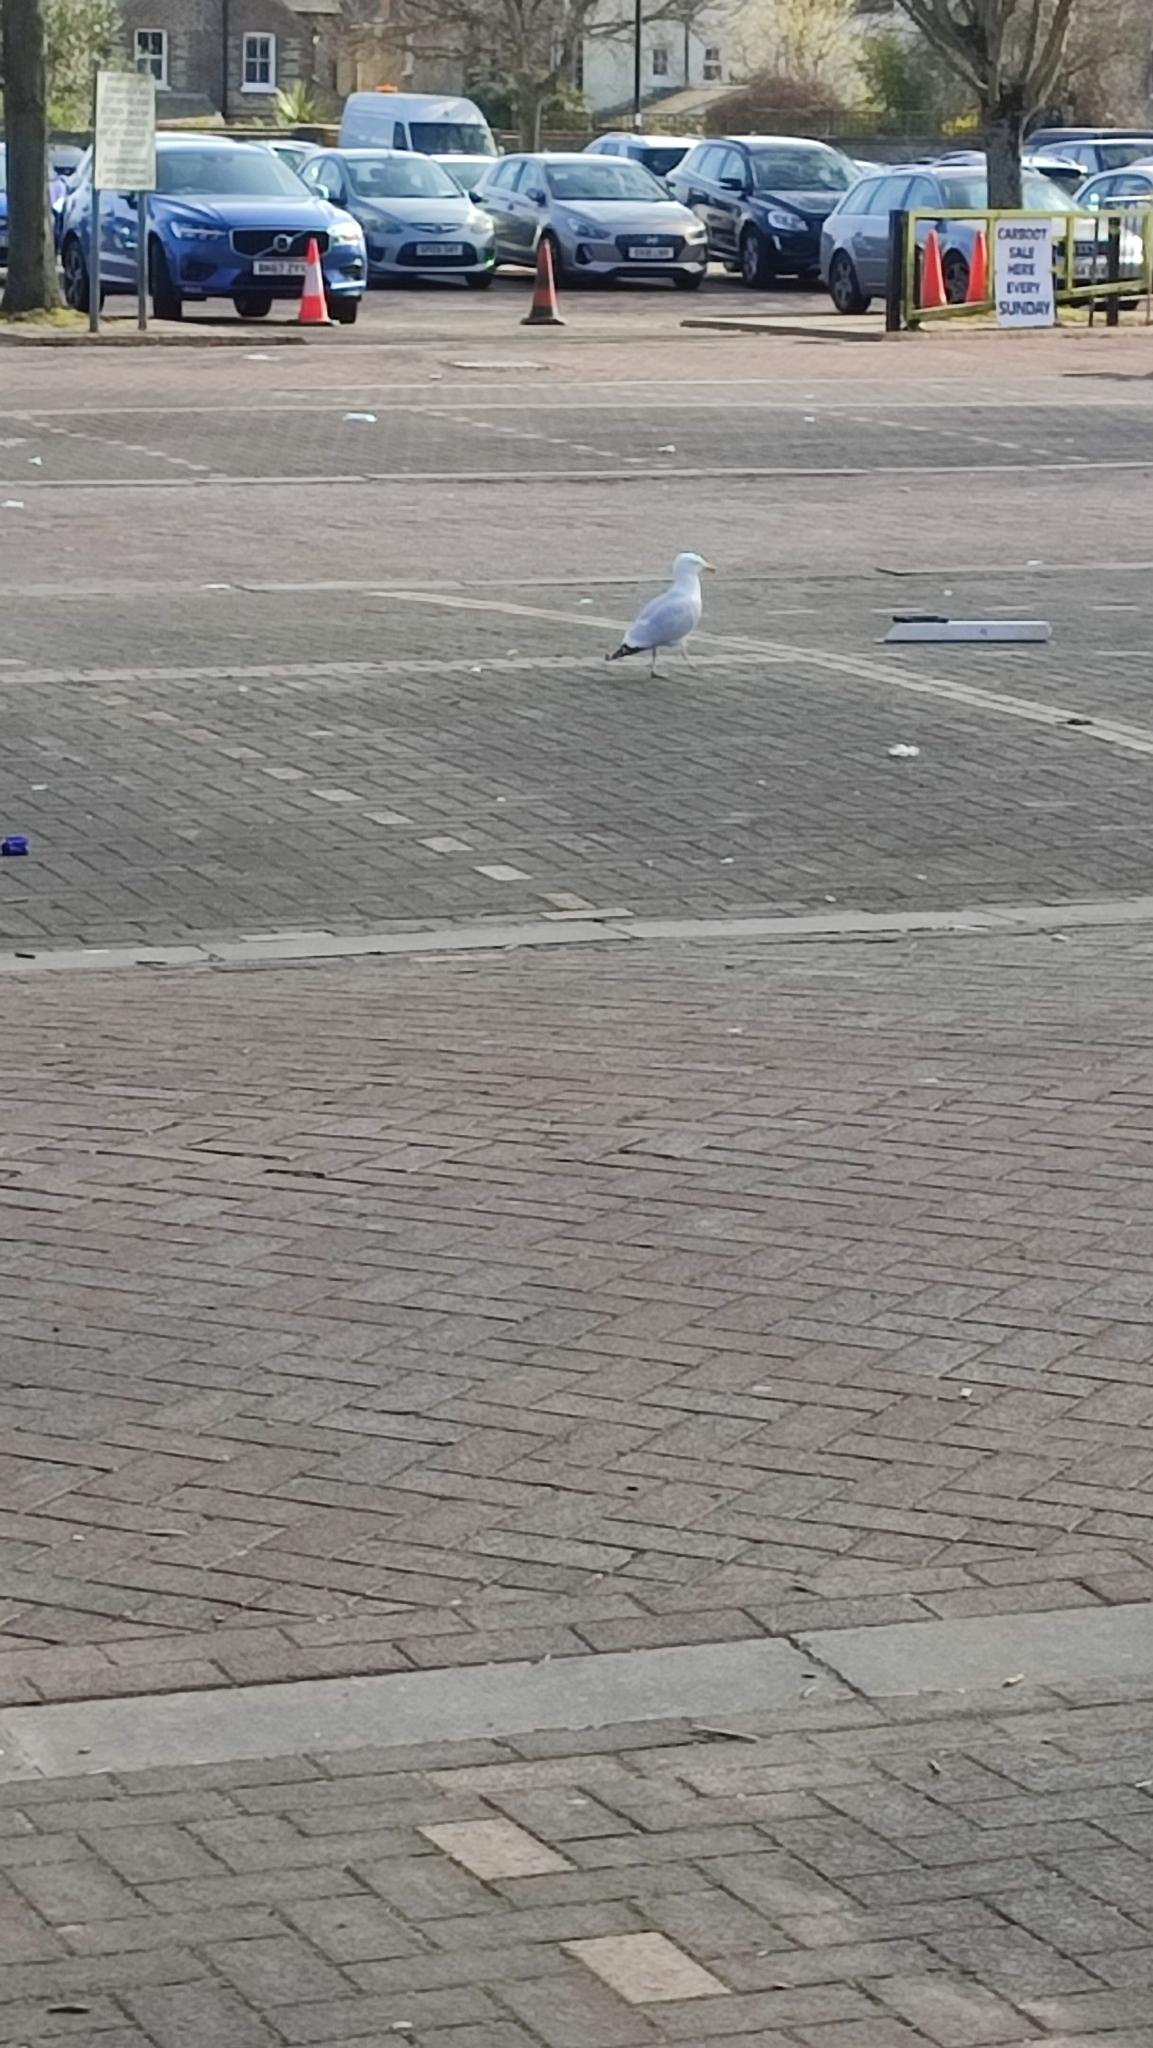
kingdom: Animalia
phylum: Chordata
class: Aves
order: Charadriiformes
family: Laridae
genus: Larus
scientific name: Larus argentatus
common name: Herring gull
